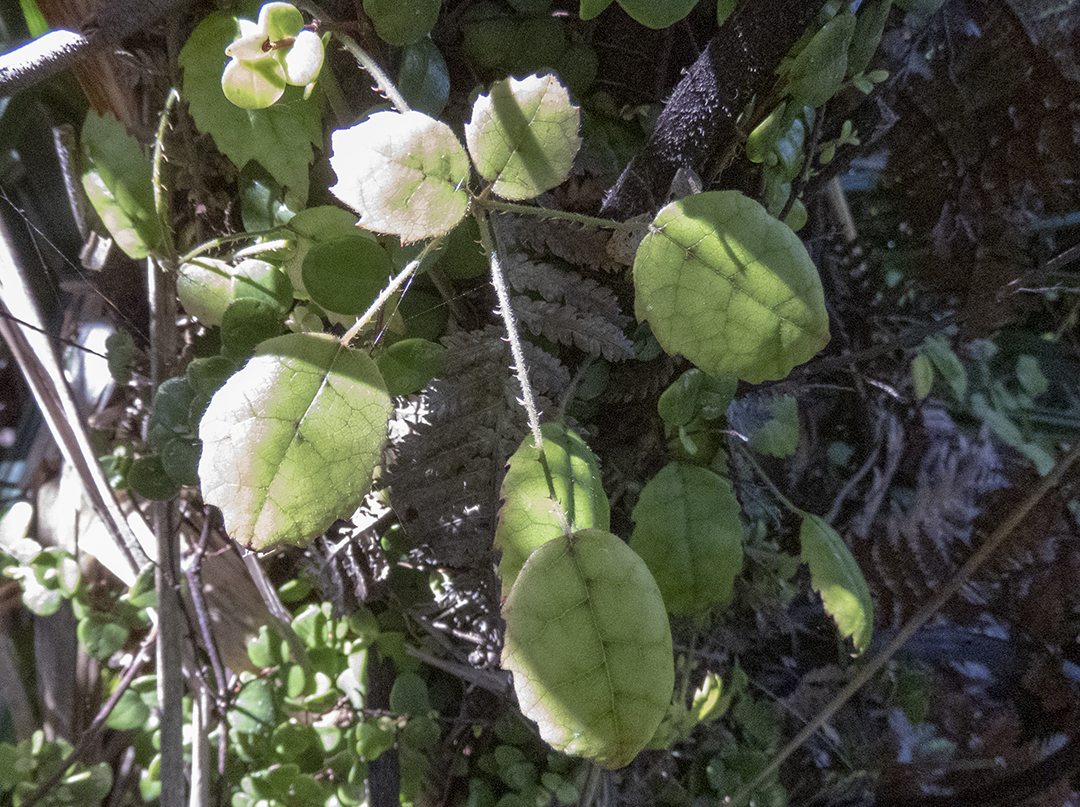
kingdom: Plantae
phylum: Tracheophyta
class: Magnoliopsida
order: Rosales
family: Rosaceae
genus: Rubus
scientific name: Rubus australis
